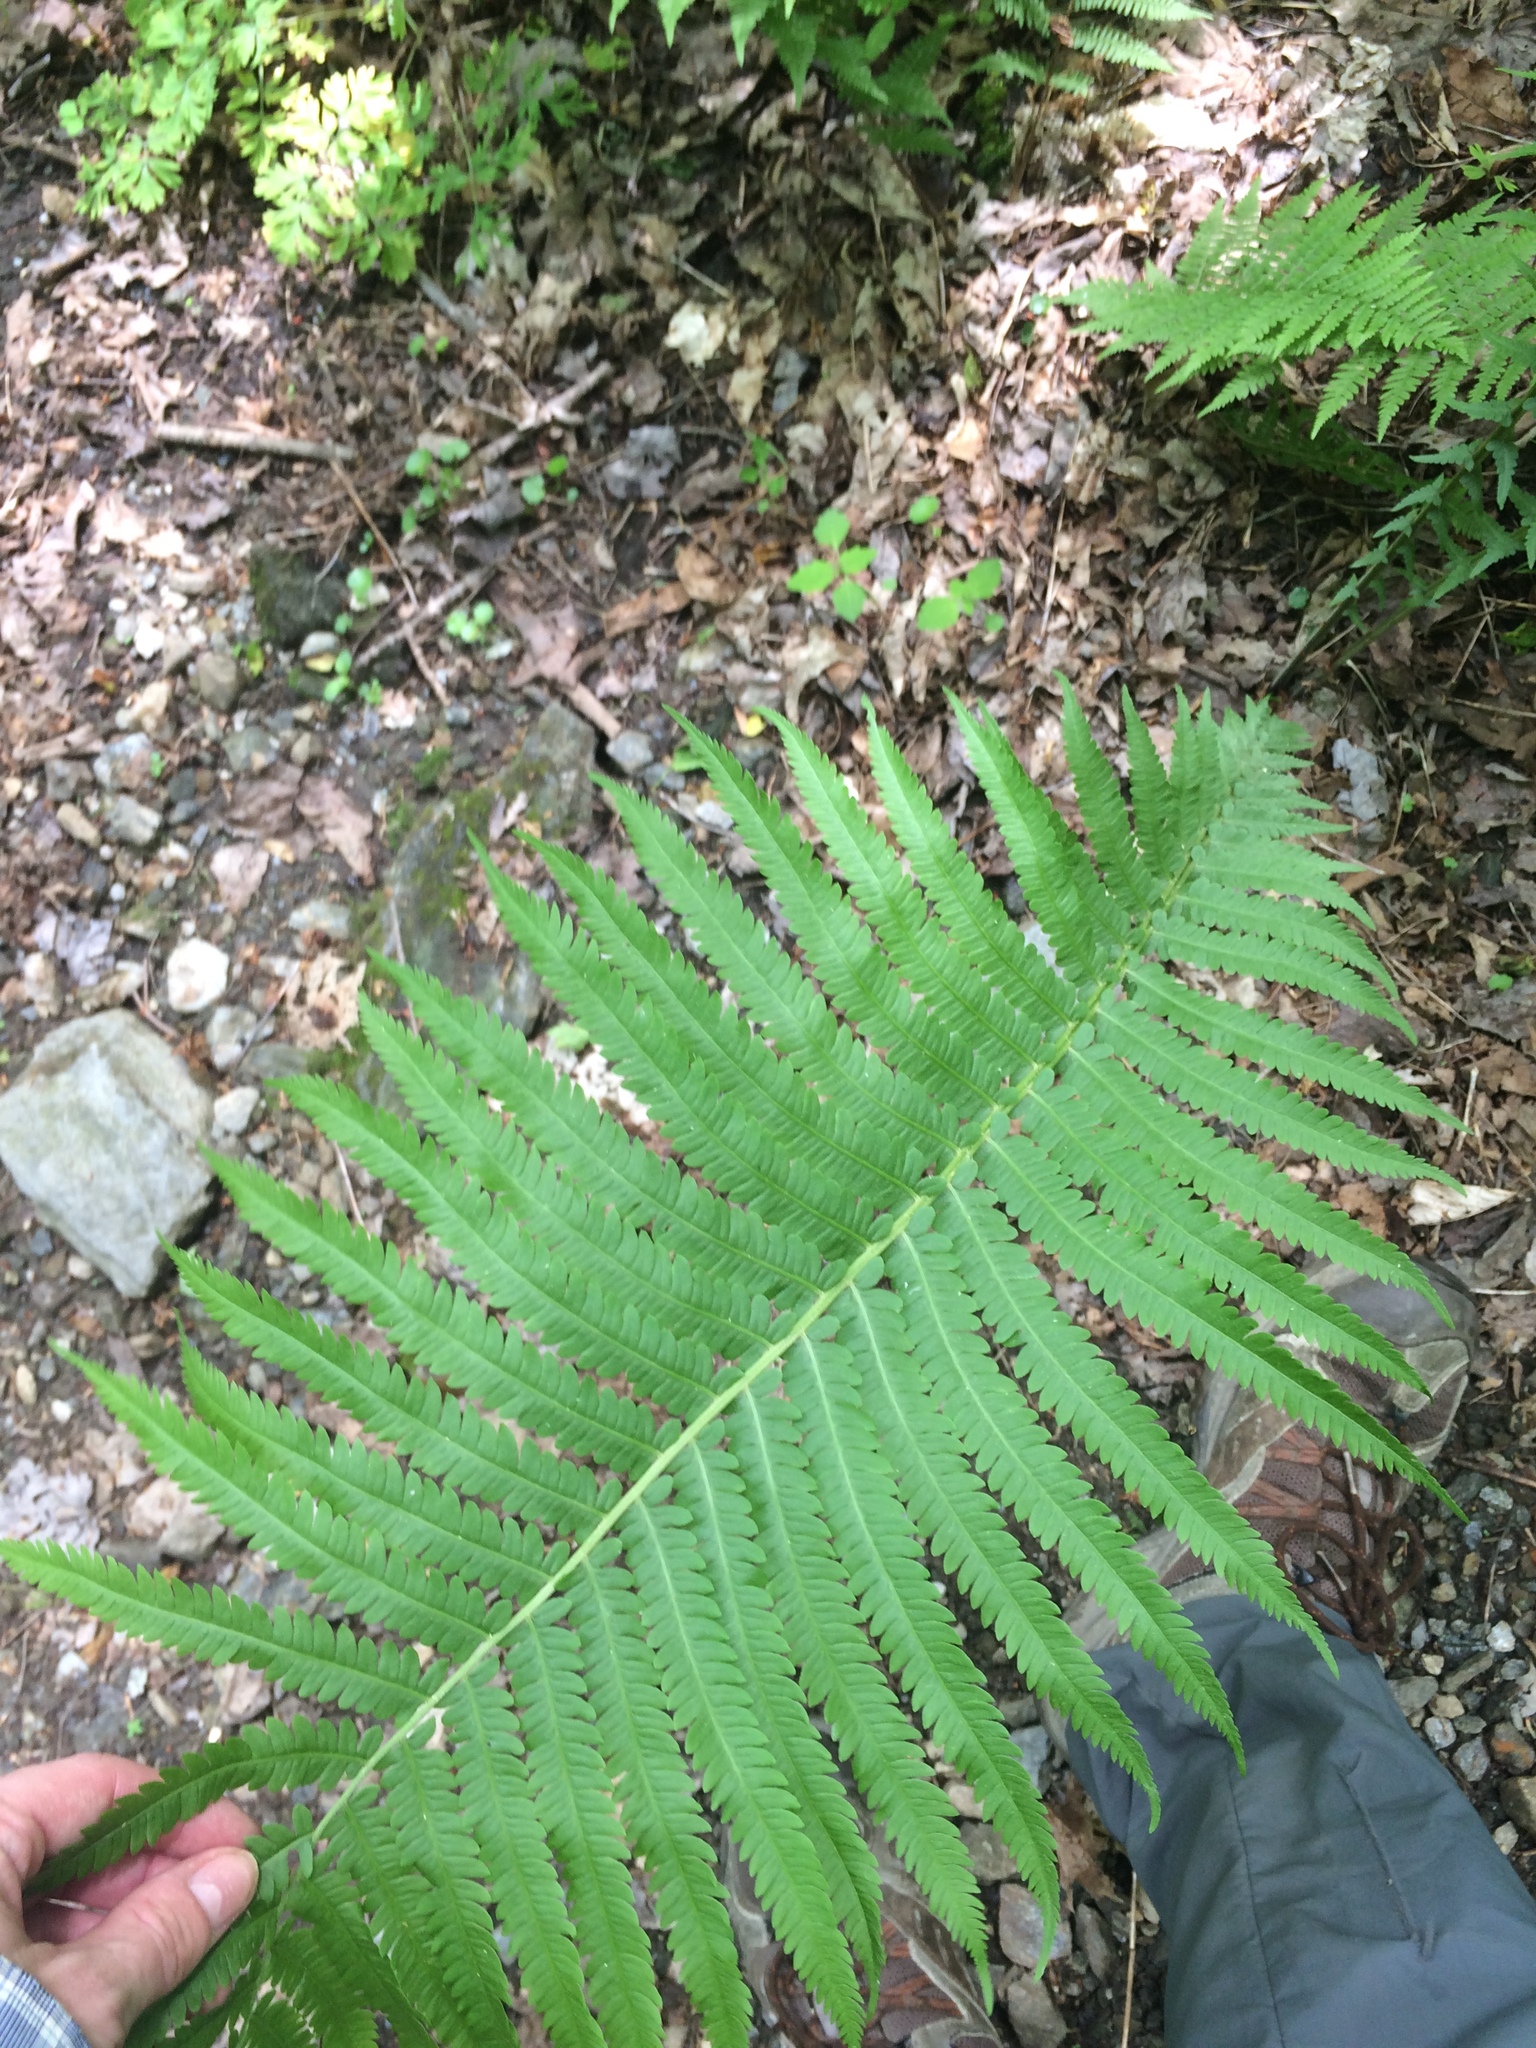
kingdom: Plantae
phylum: Tracheophyta
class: Polypodiopsida
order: Polypodiales
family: Onocleaceae
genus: Matteuccia
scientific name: Matteuccia struthiopteris
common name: Ostrich fern
